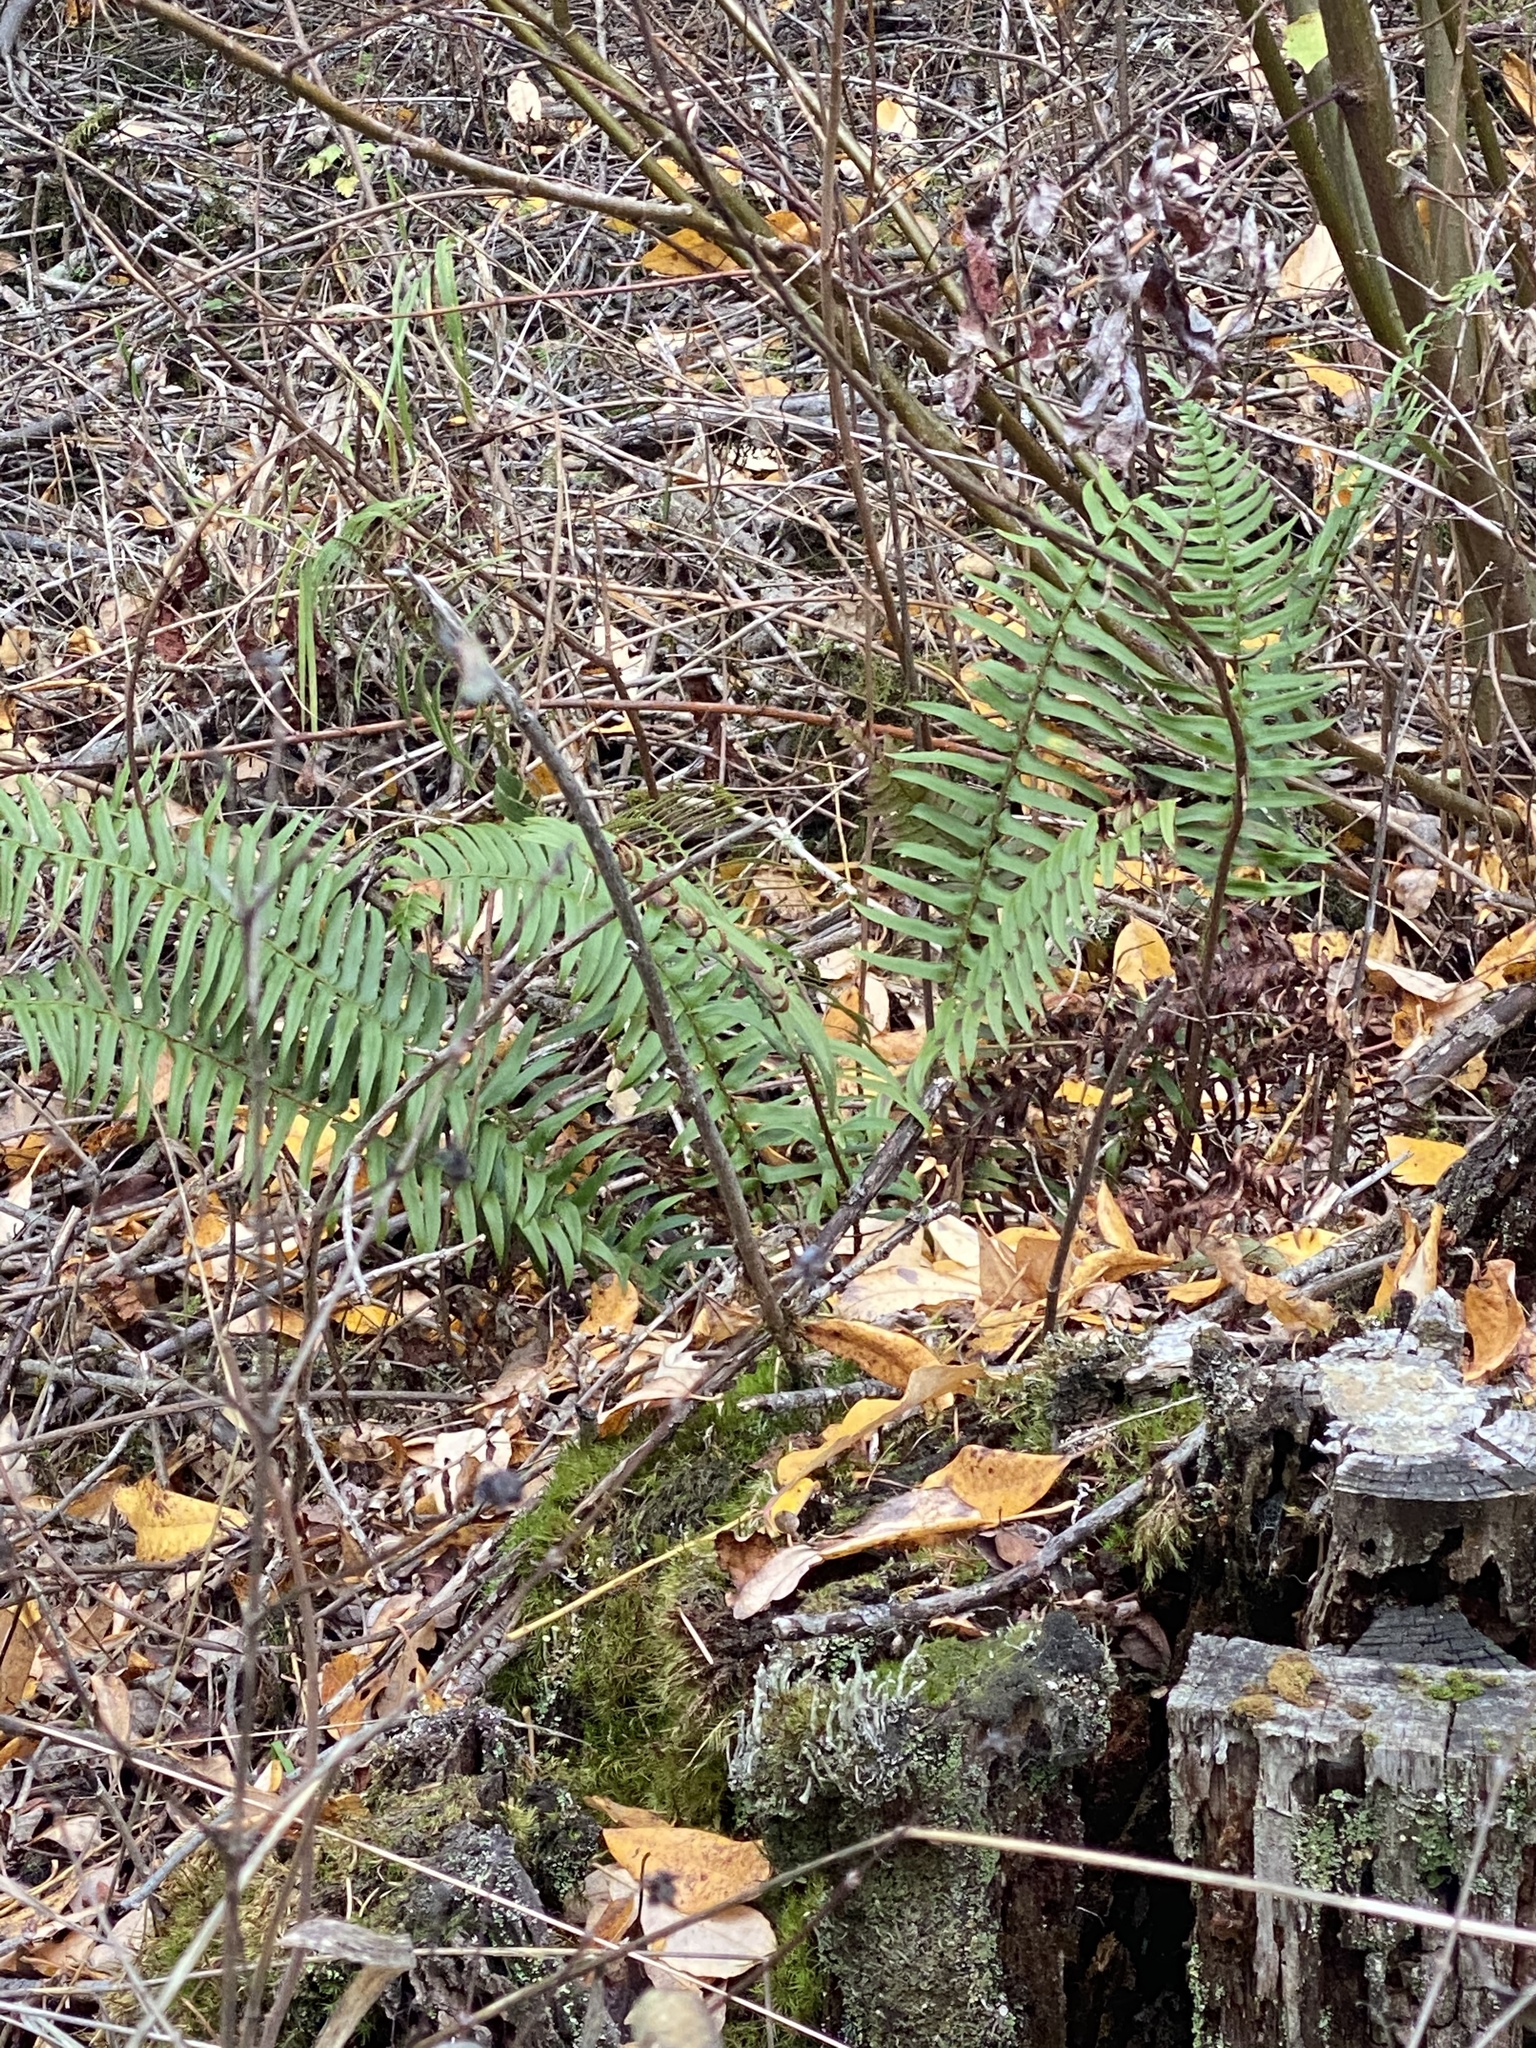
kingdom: Plantae
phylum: Tracheophyta
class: Polypodiopsida
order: Polypodiales
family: Dryopteridaceae
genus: Polystichum
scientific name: Polystichum munitum
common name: Western sword-fern
